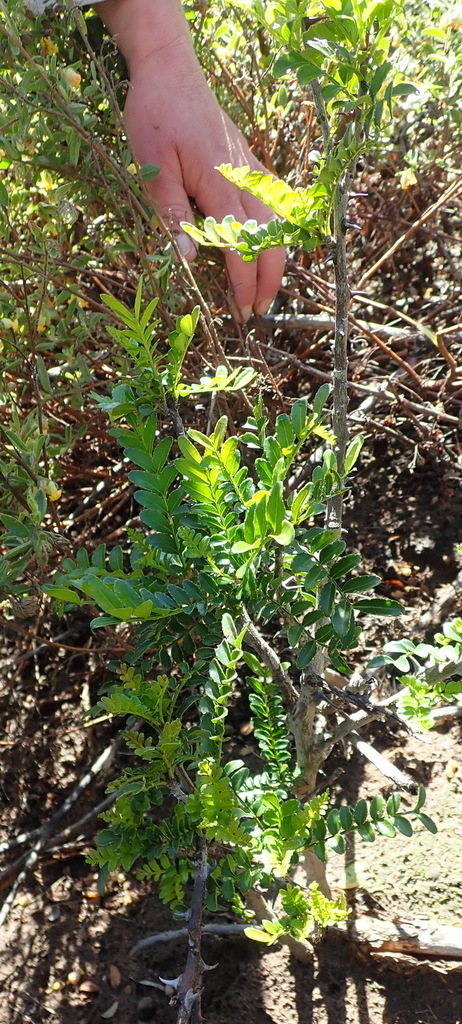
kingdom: Plantae
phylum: Tracheophyta
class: Magnoliopsida
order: Sapindales
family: Rutaceae
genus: Zanthoxylum
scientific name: Zanthoxylum capense
